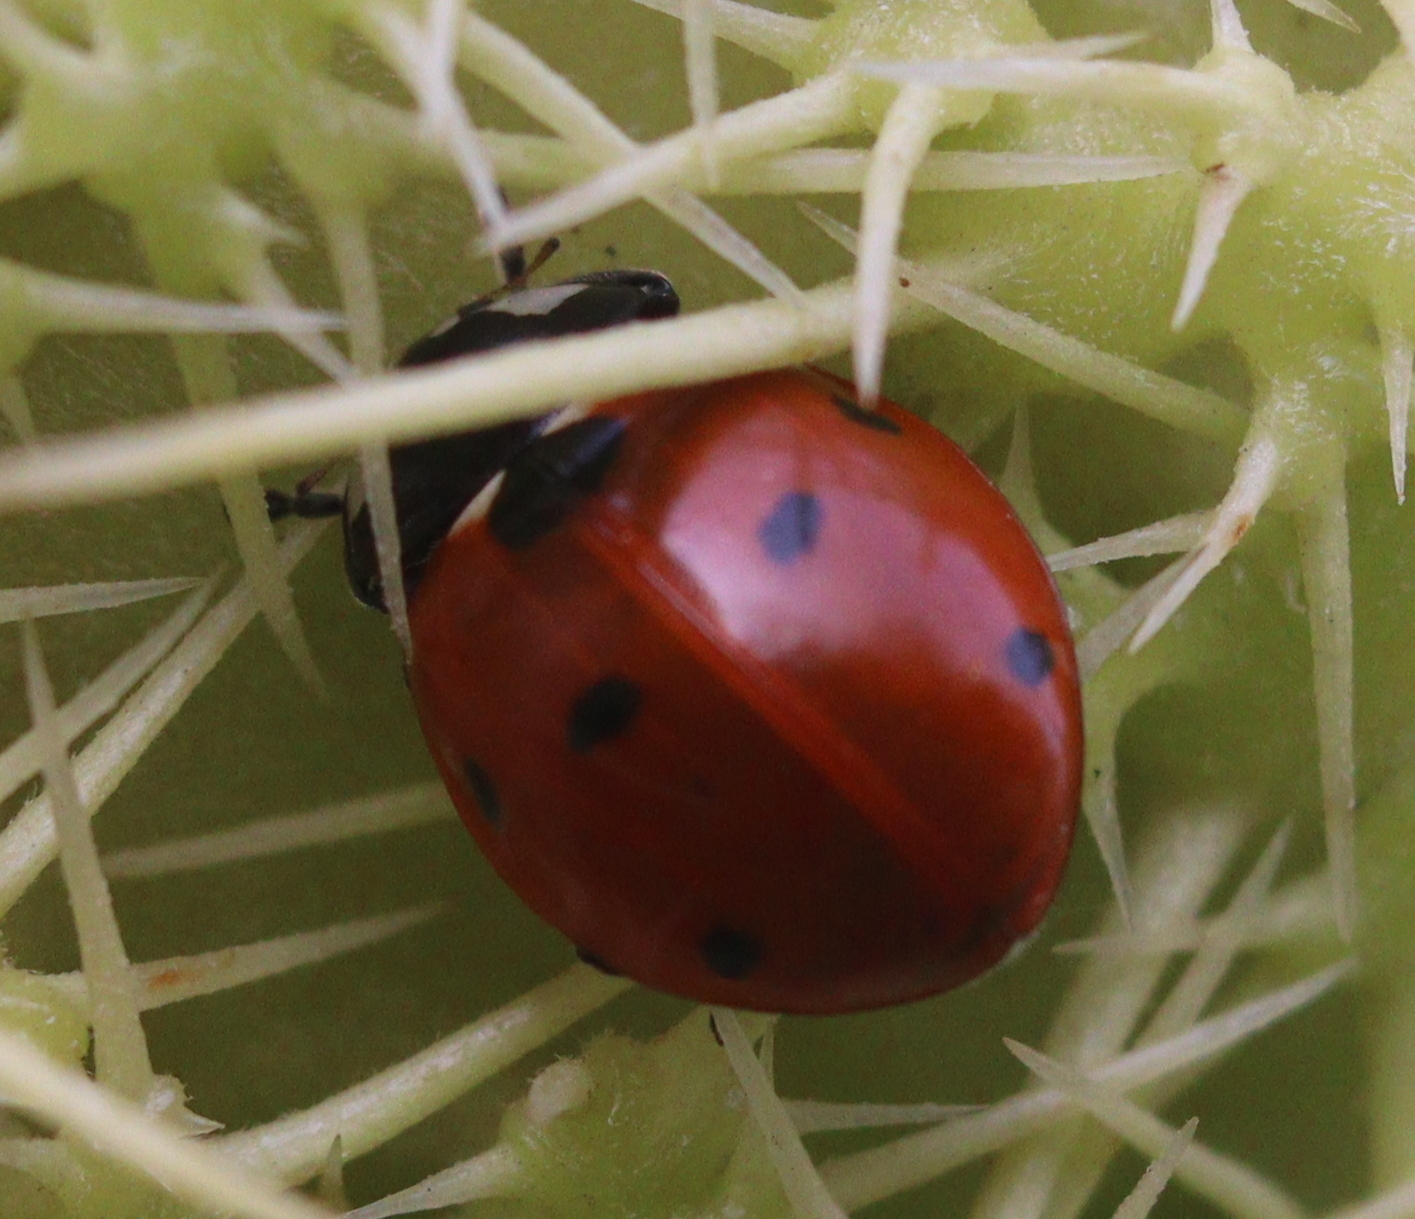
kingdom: Animalia
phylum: Arthropoda
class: Insecta
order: Coleoptera
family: Coccinellidae
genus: Coccinella
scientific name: Coccinella septempunctata
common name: Sevenspotted lady beetle
